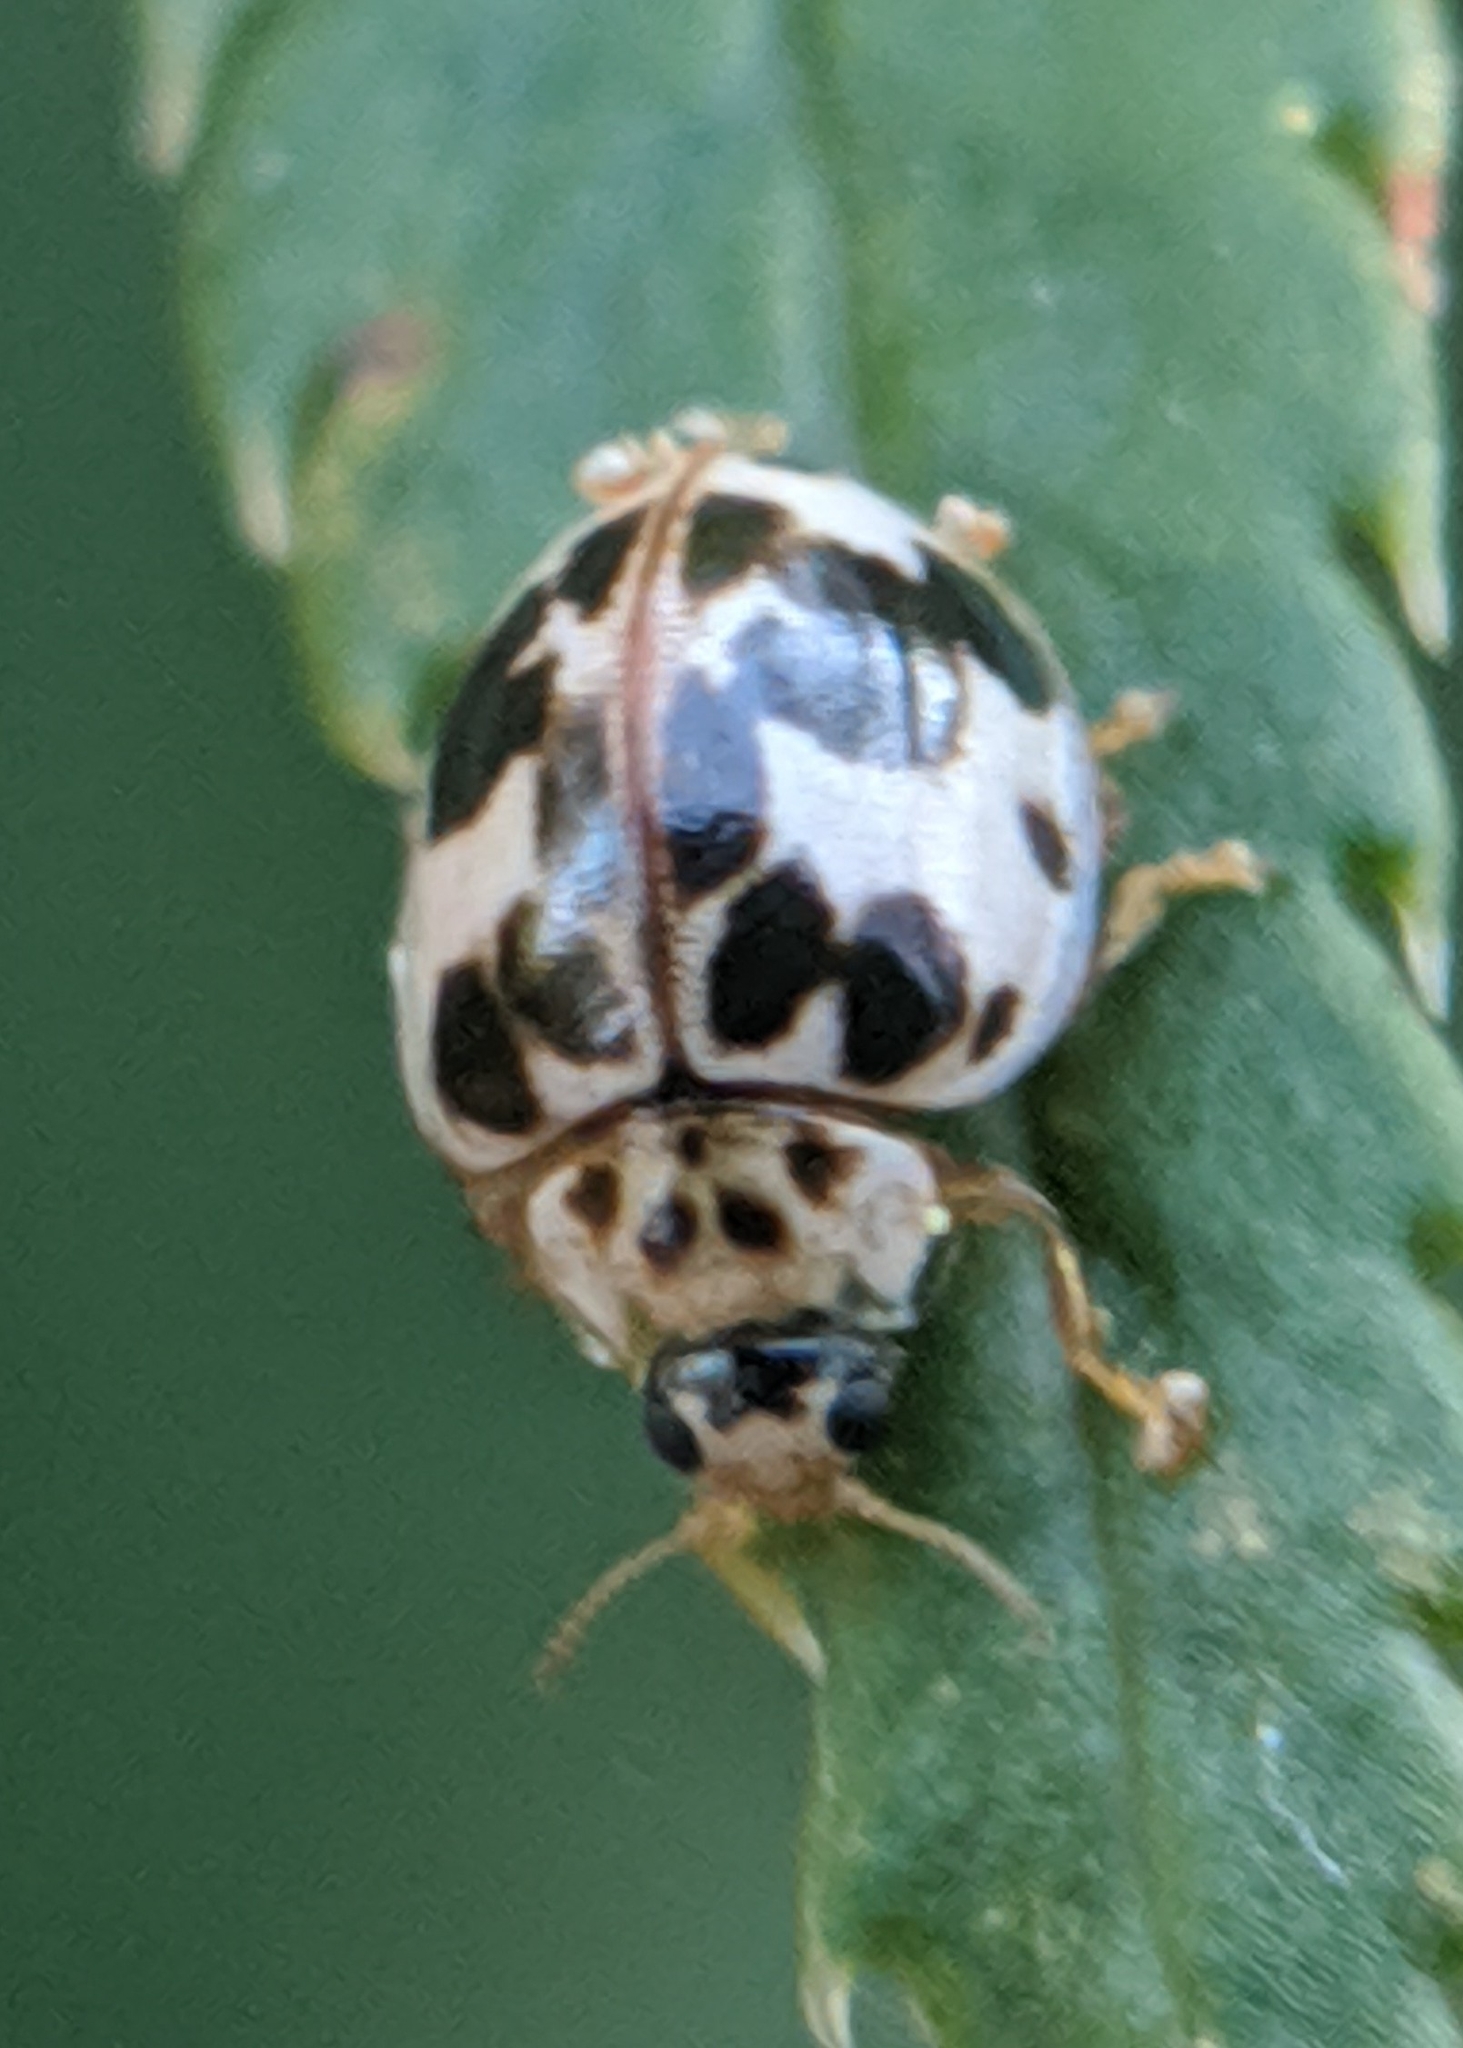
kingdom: Animalia
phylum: Arthropoda
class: Insecta
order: Coleoptera
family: Coccinellidae
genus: Psyllobora
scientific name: Psyllobora borealis
